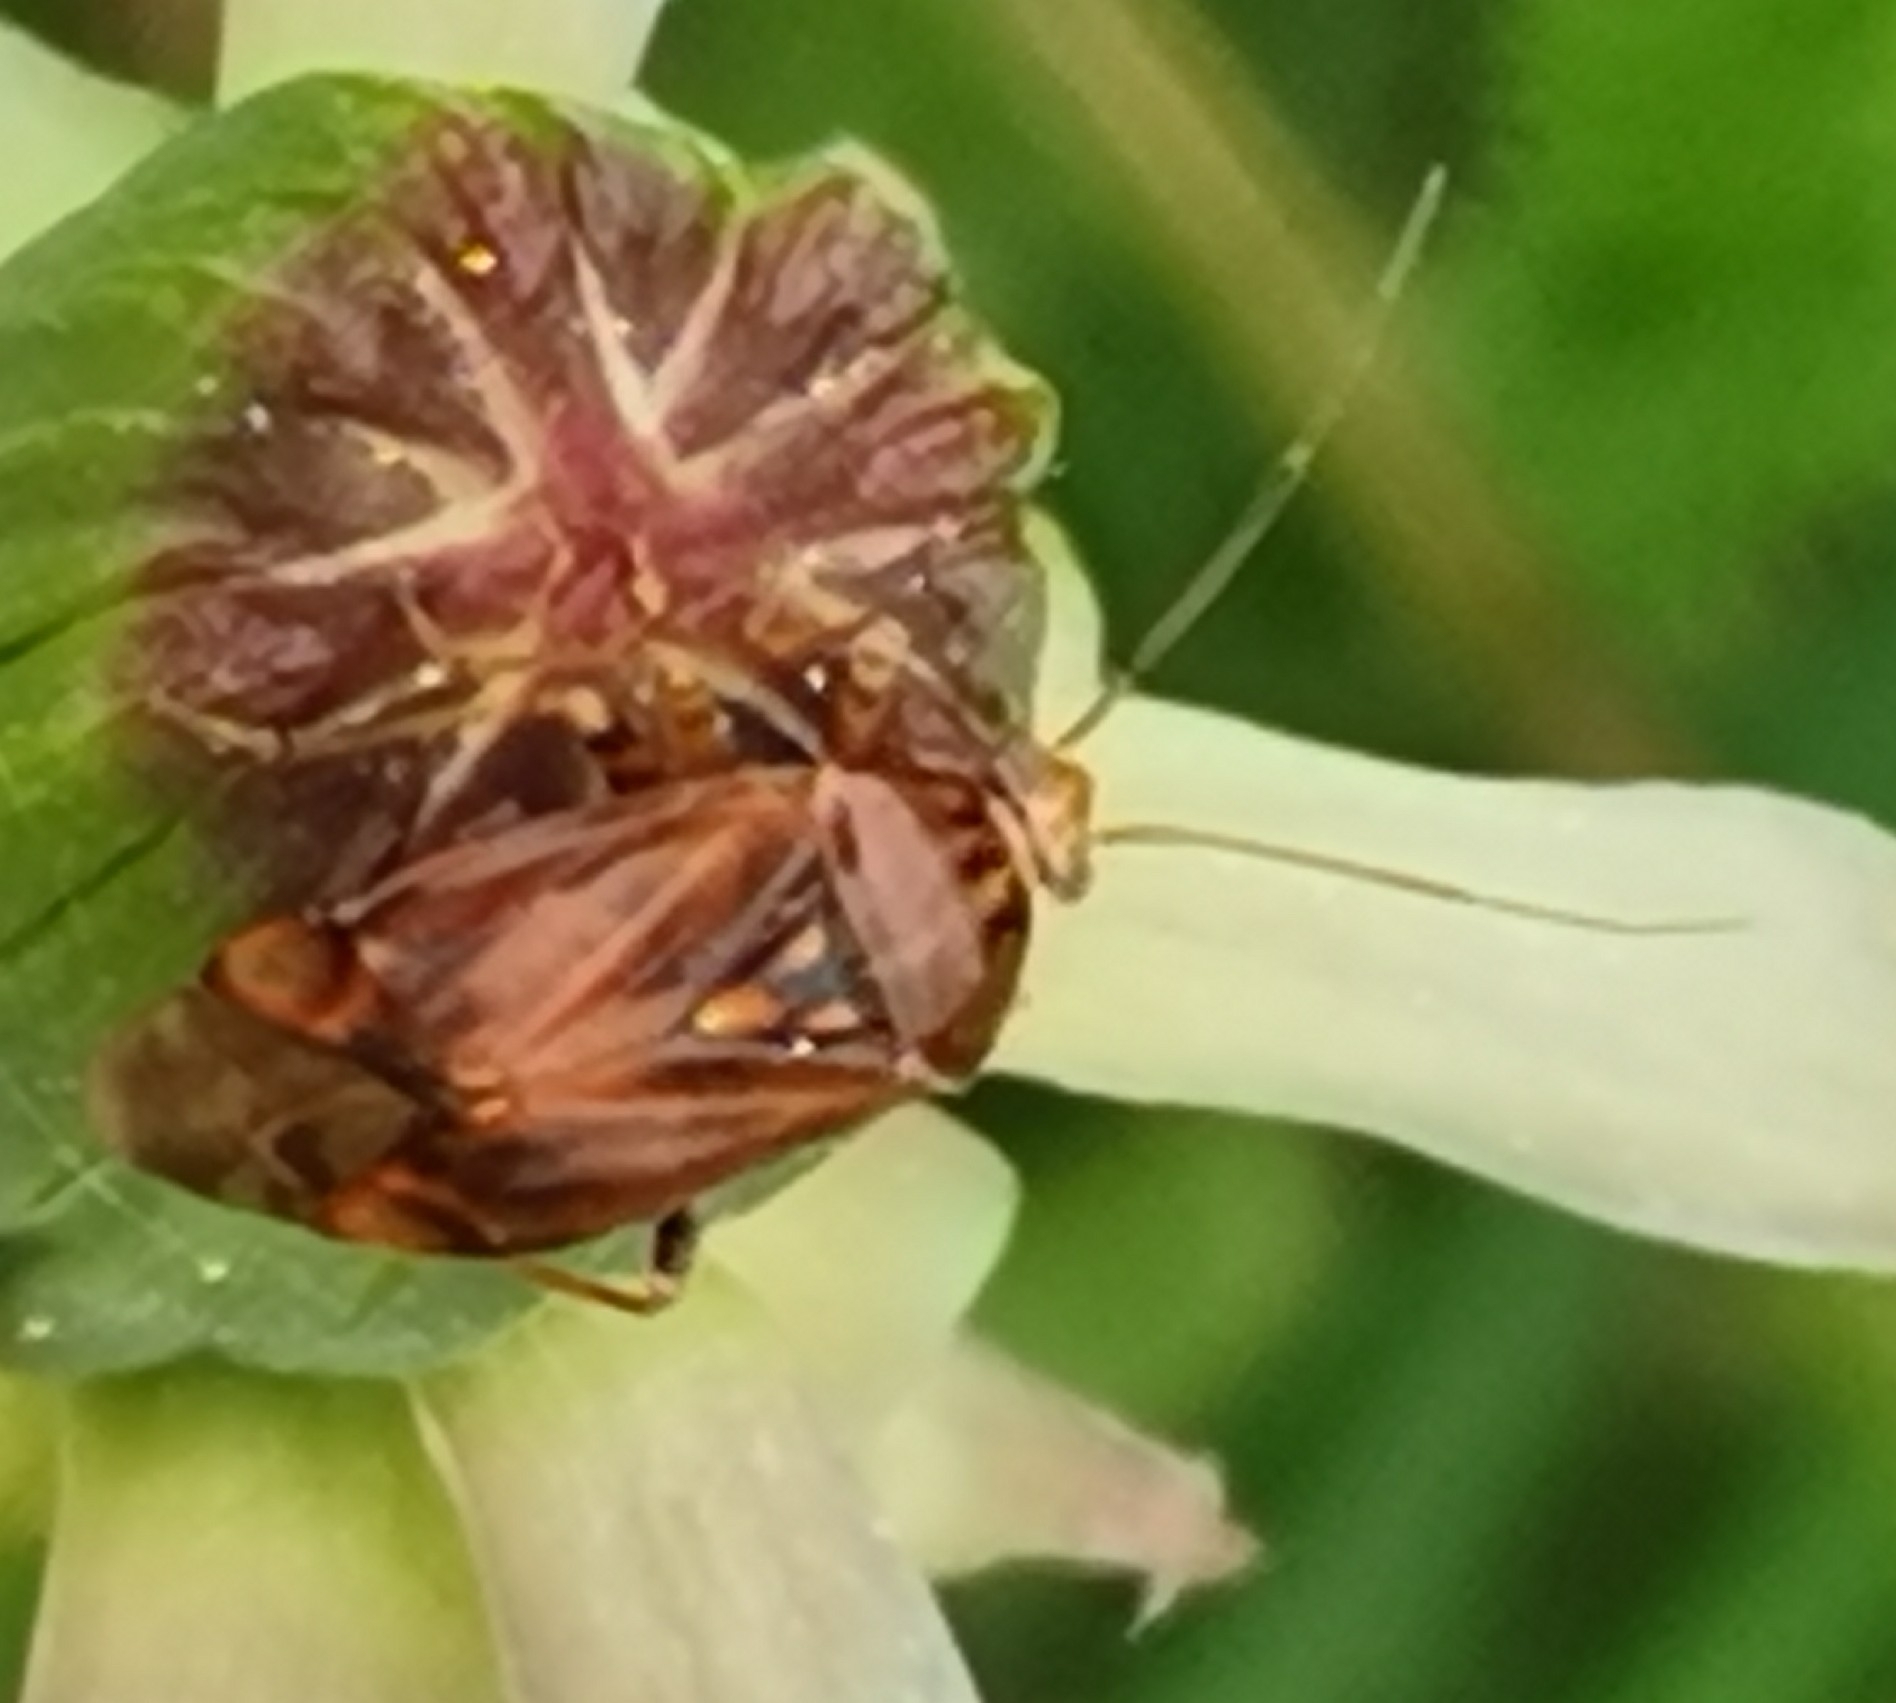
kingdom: Animalia
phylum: Arthropoda
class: Insecta
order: Hemiptera
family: Miridae
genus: Lygus
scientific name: Lygus wagneri
